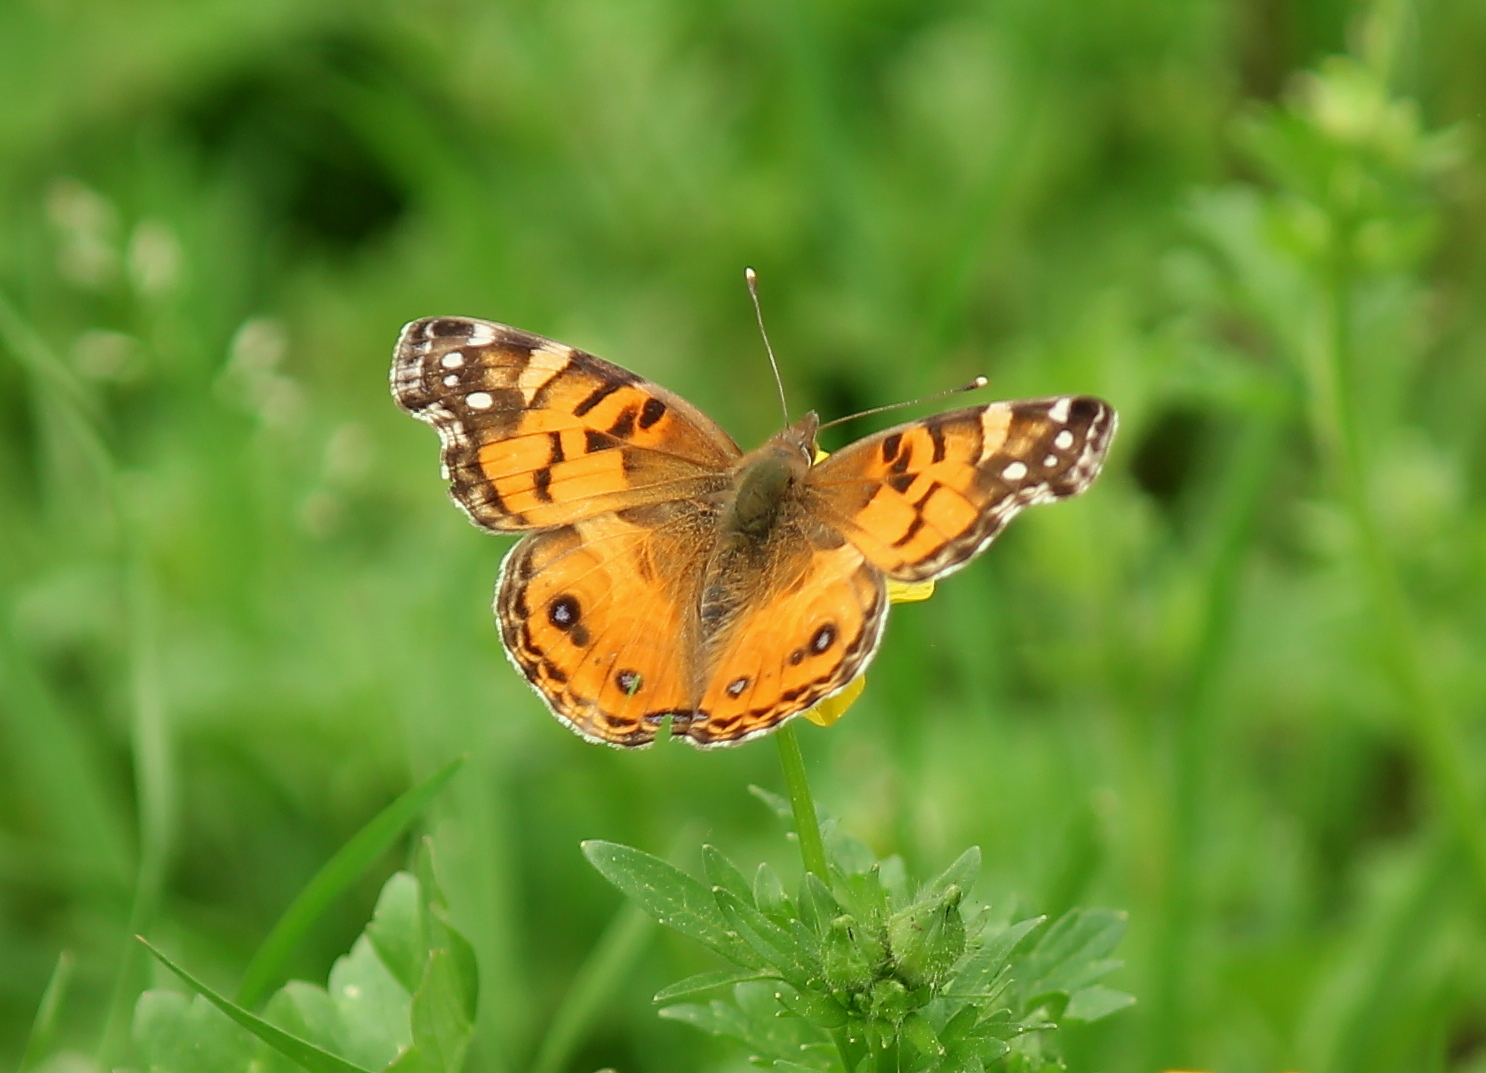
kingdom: Animalia
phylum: Arthropoda
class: Insecta
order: Lepidoptera
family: Nymphalidae
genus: Vanessa
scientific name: Vanessa virginiensis
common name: American lady
